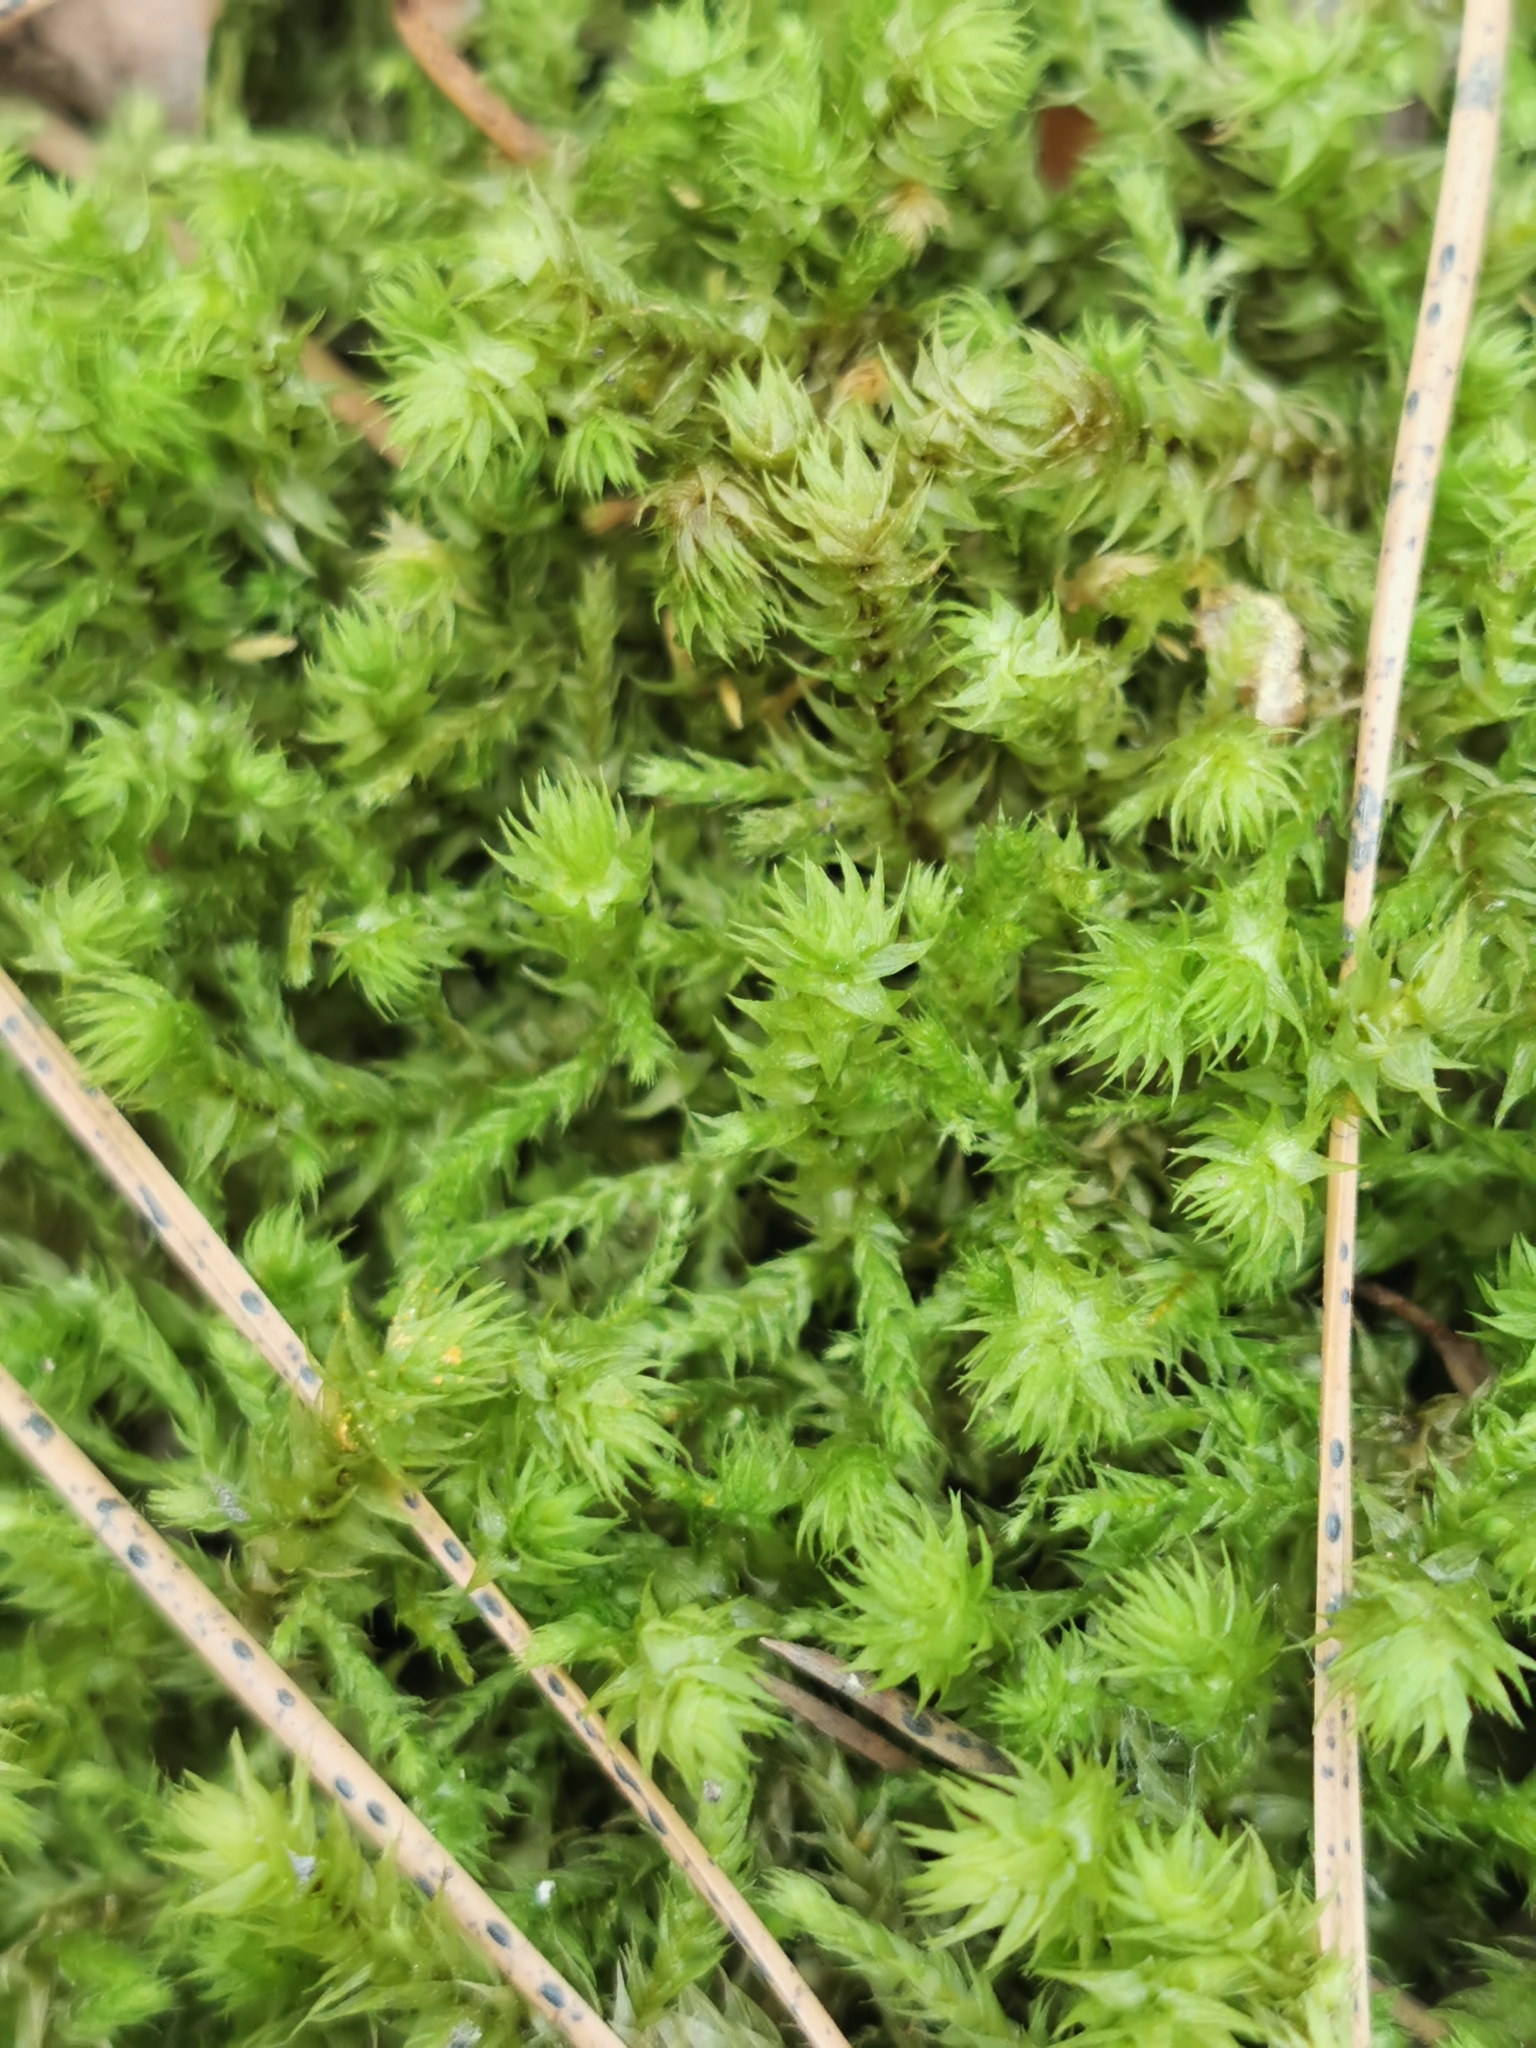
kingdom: Plantae
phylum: Bryophyta
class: Bryopsida
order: Hypnales
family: Hylocomiaceae
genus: Hylocomiadelphus
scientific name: Hylocomiadelphus triquetrus
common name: Rough goose neck moss
